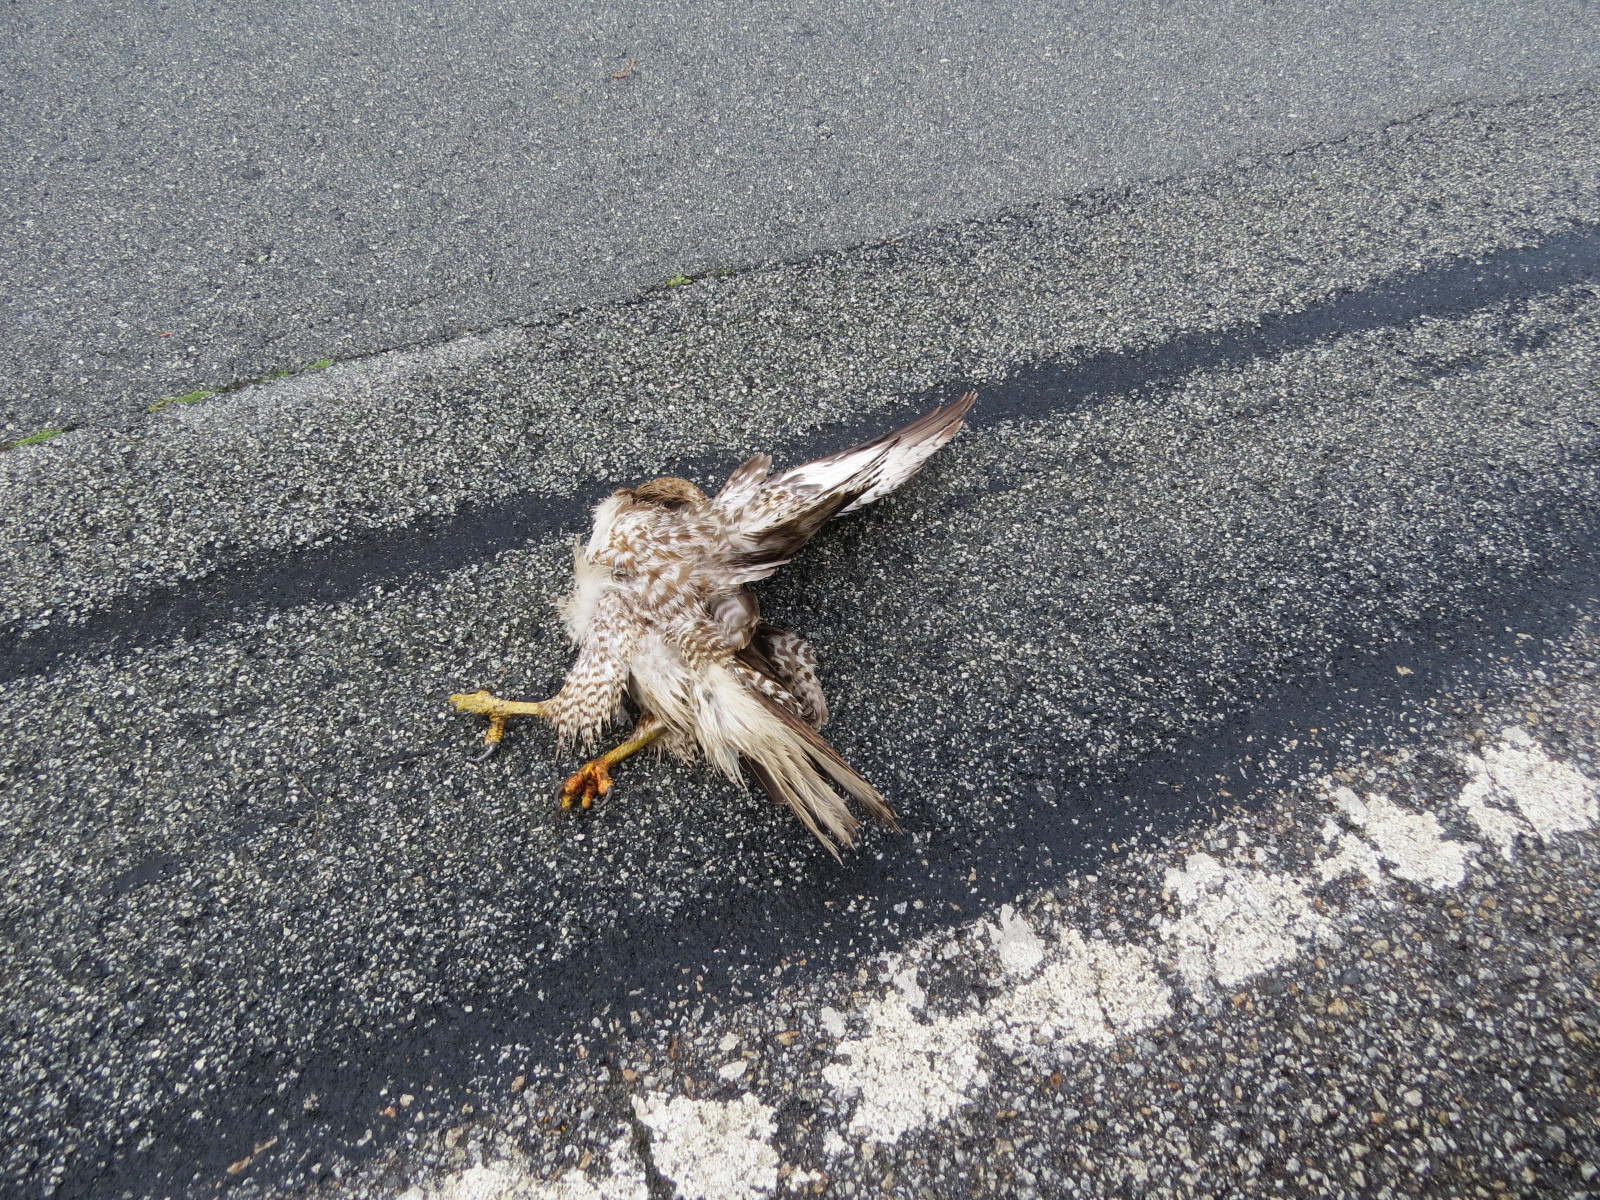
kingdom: Animalia
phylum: Chordata
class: Aves
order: Accipitriformes
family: Accipitridae
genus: Buteo
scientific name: Buteo jamaicensis
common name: Red-tailed hawk
